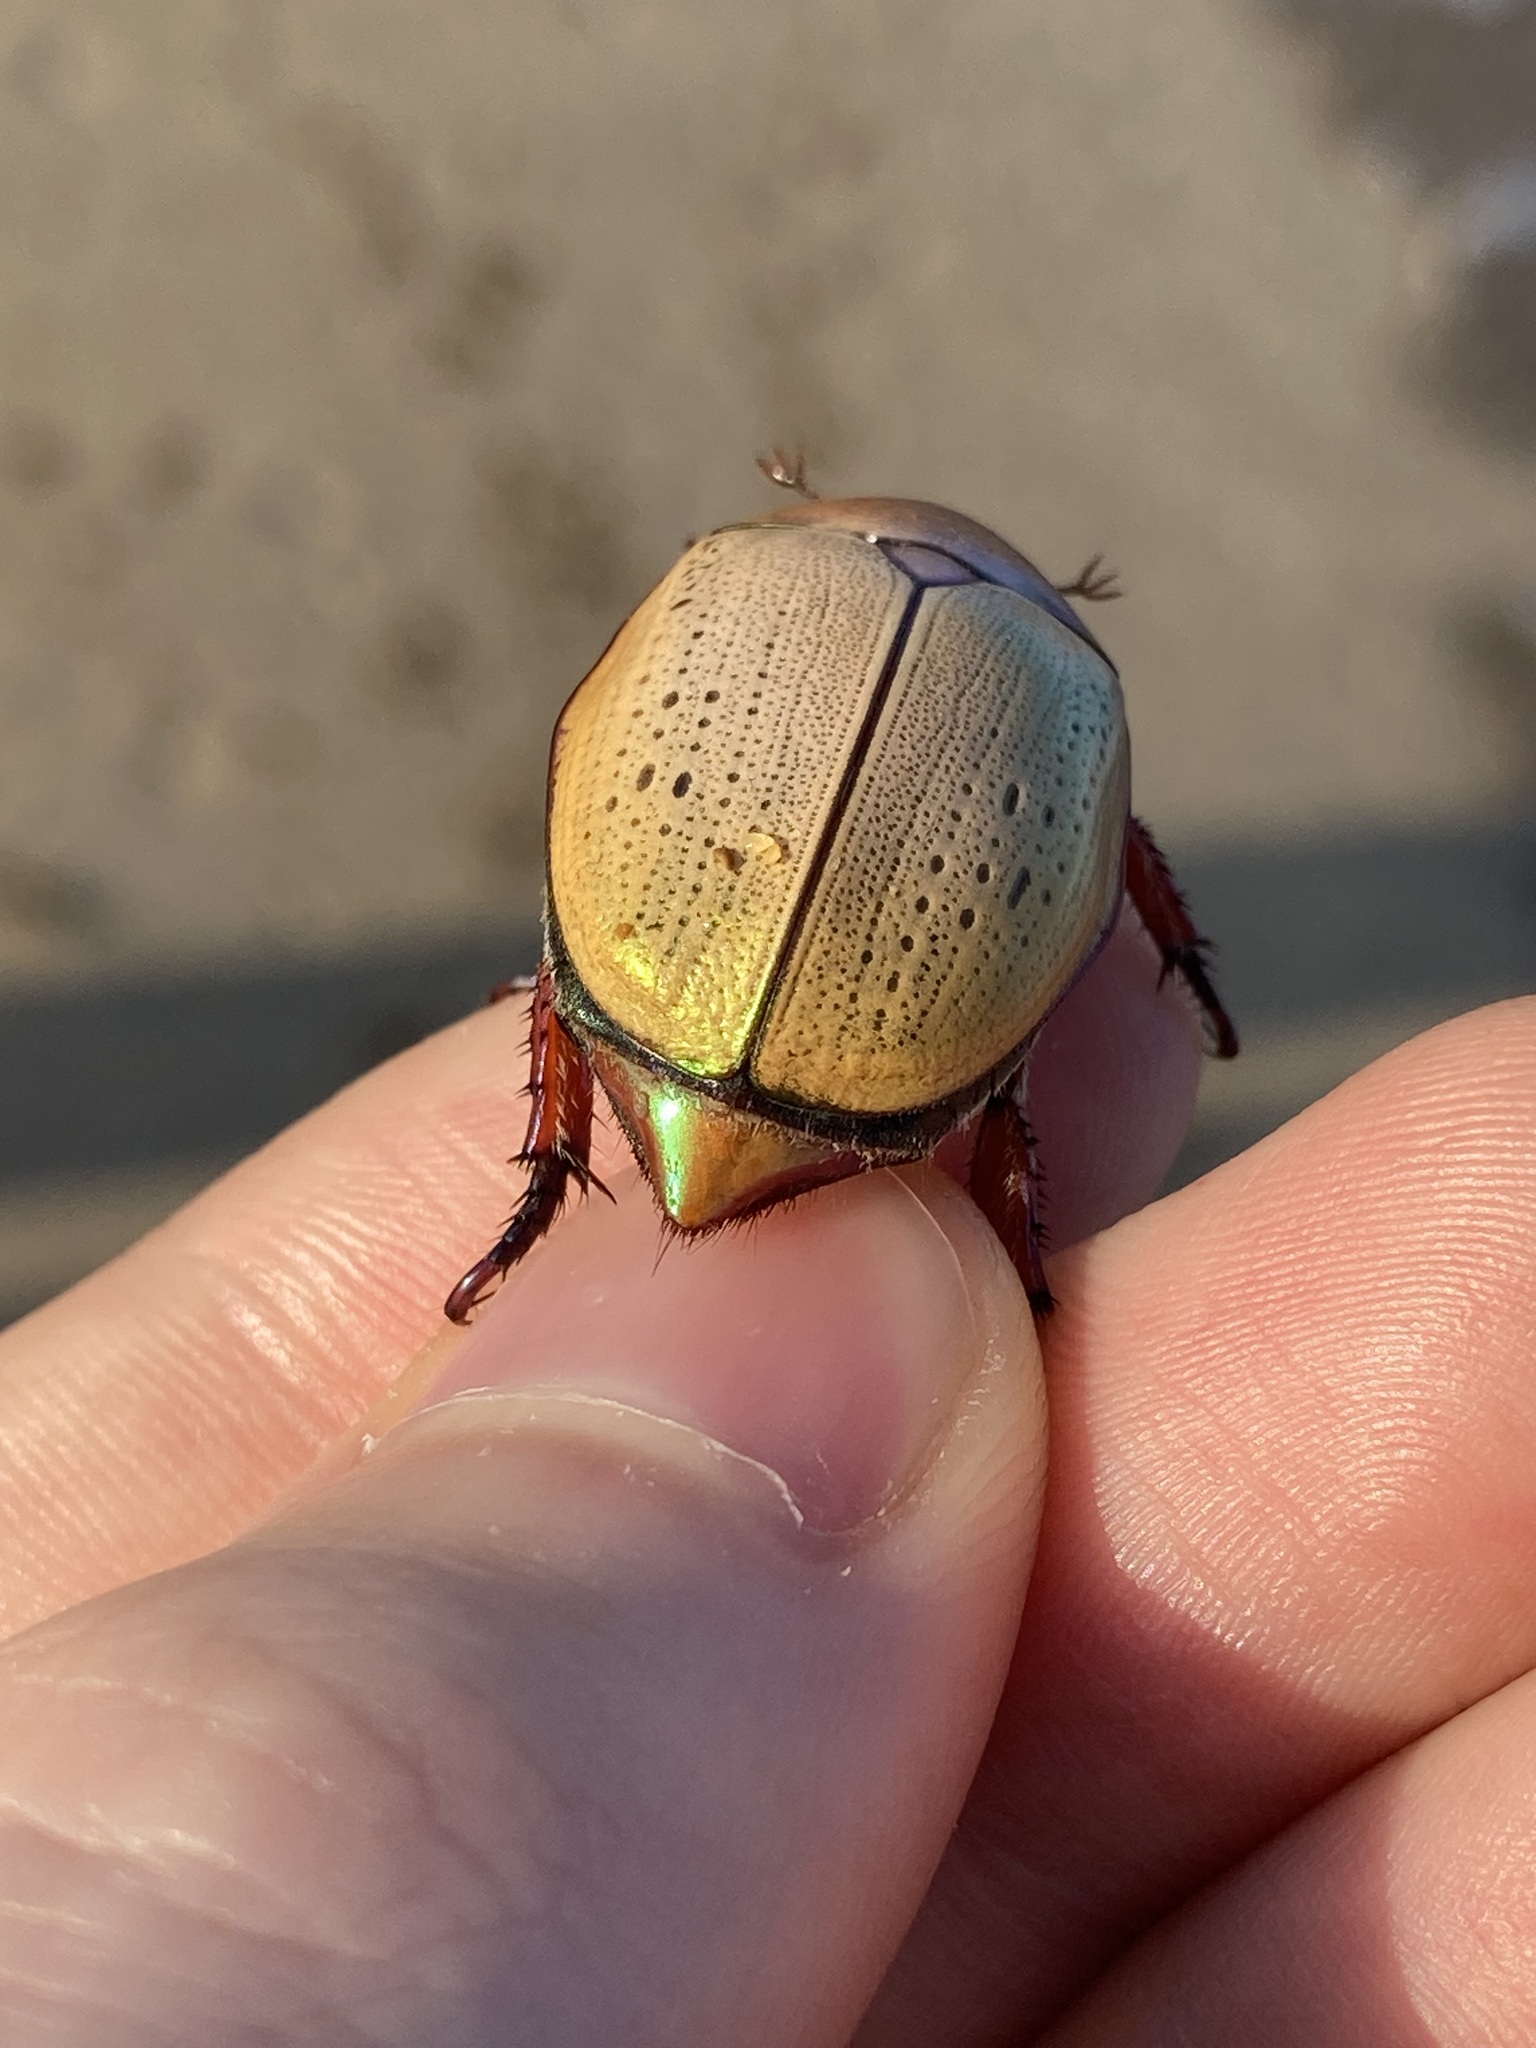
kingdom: Animalia
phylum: Arthropoda
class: Insecta
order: Coleoptera
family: Scarabaeidae
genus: Anoplognathus
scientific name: Anoplognathus olivieri
